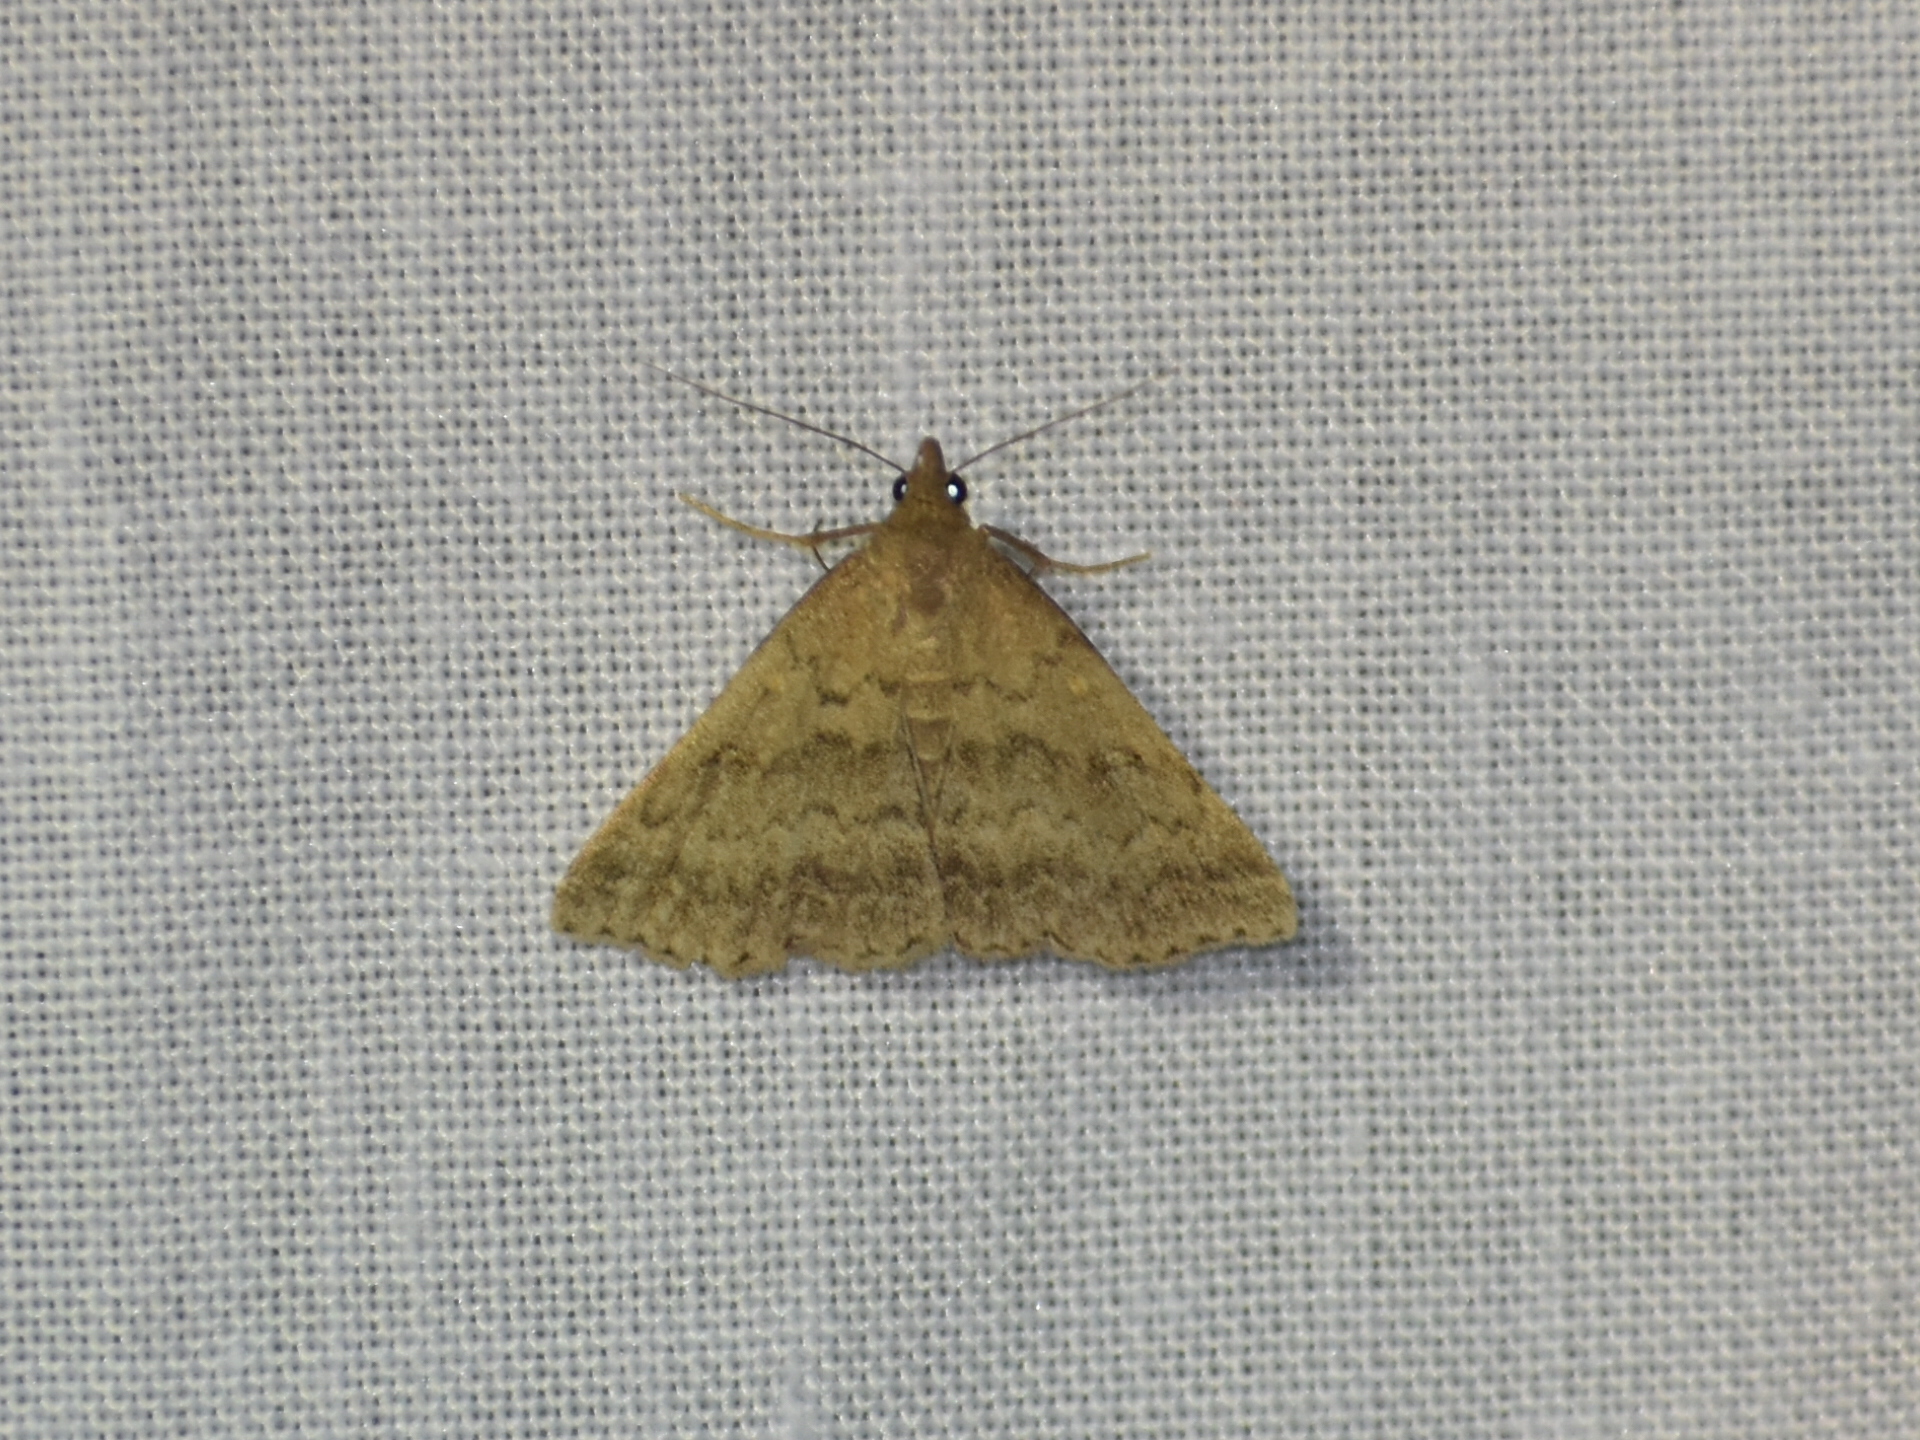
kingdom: Animalia
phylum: Arthropoda
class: Insecta
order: Lepidoptera
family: Erebidae
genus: Tetanolita
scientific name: Tetanolita floridana
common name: Florida tetanolita moth
